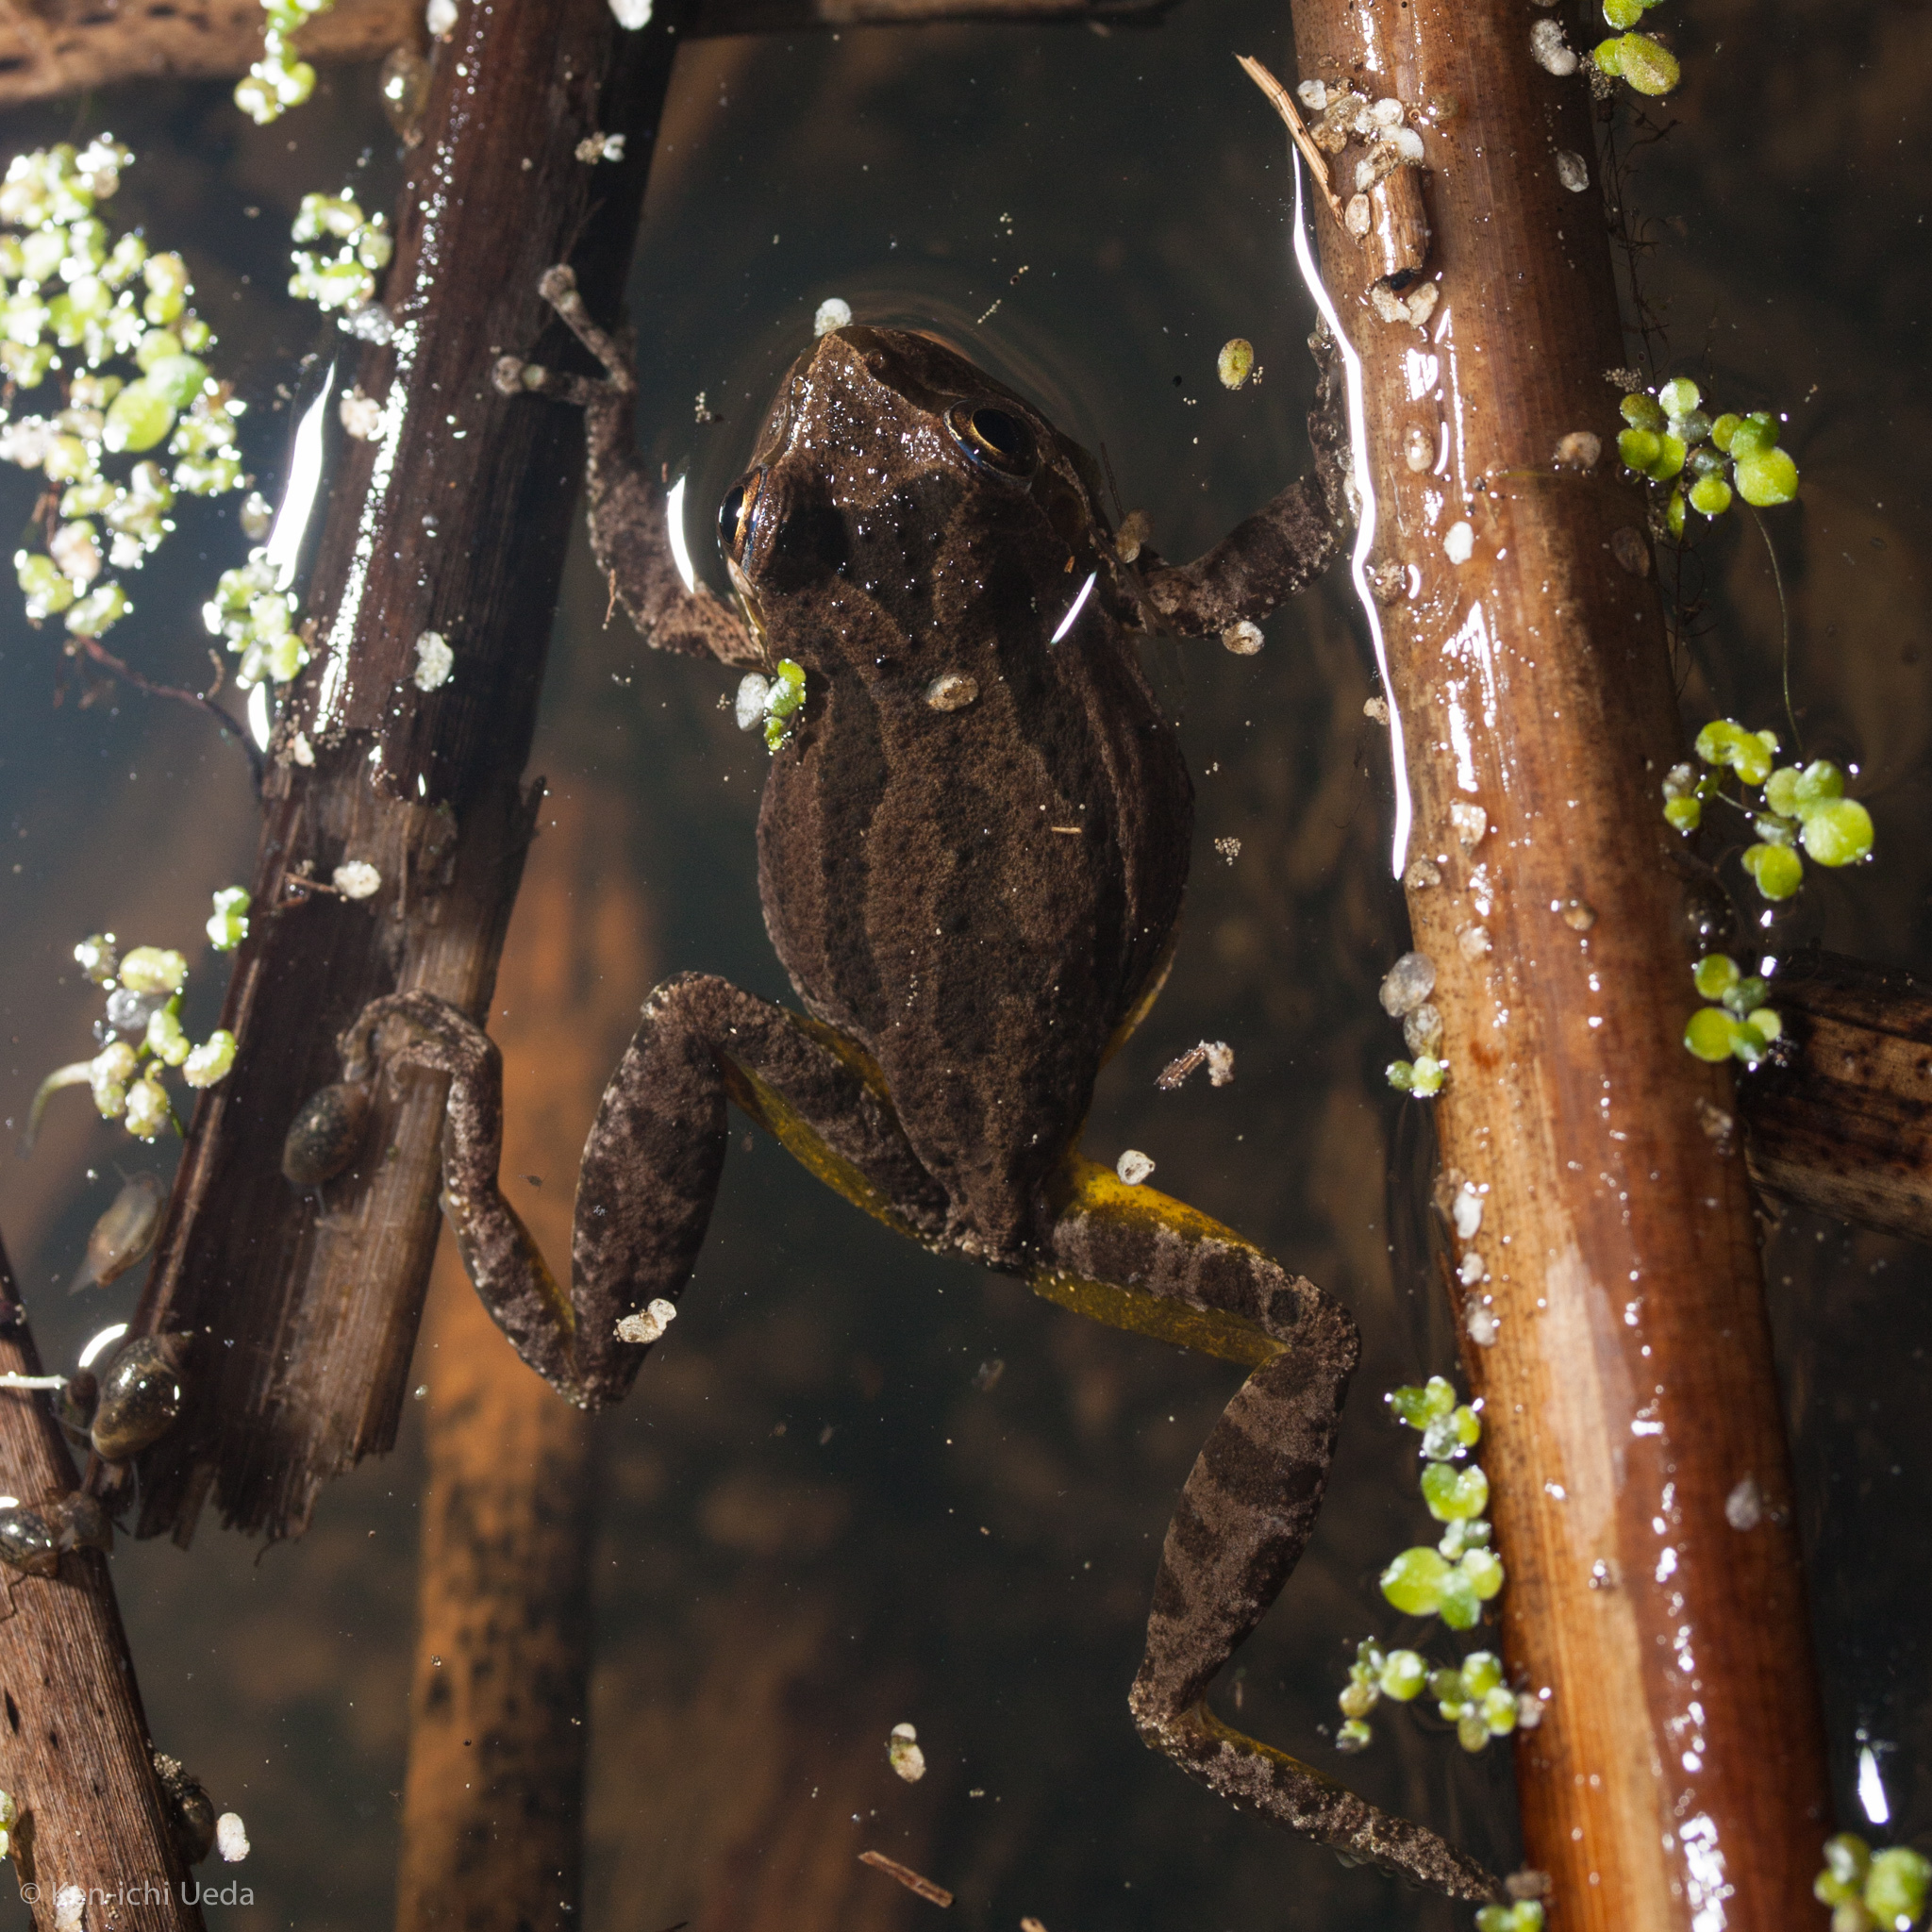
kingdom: Animalia
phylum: Chordata
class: Amphibia
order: Anura
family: Hylidae
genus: Pseudacris
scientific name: Pseudacris regilla
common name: Pacific chorus frog
